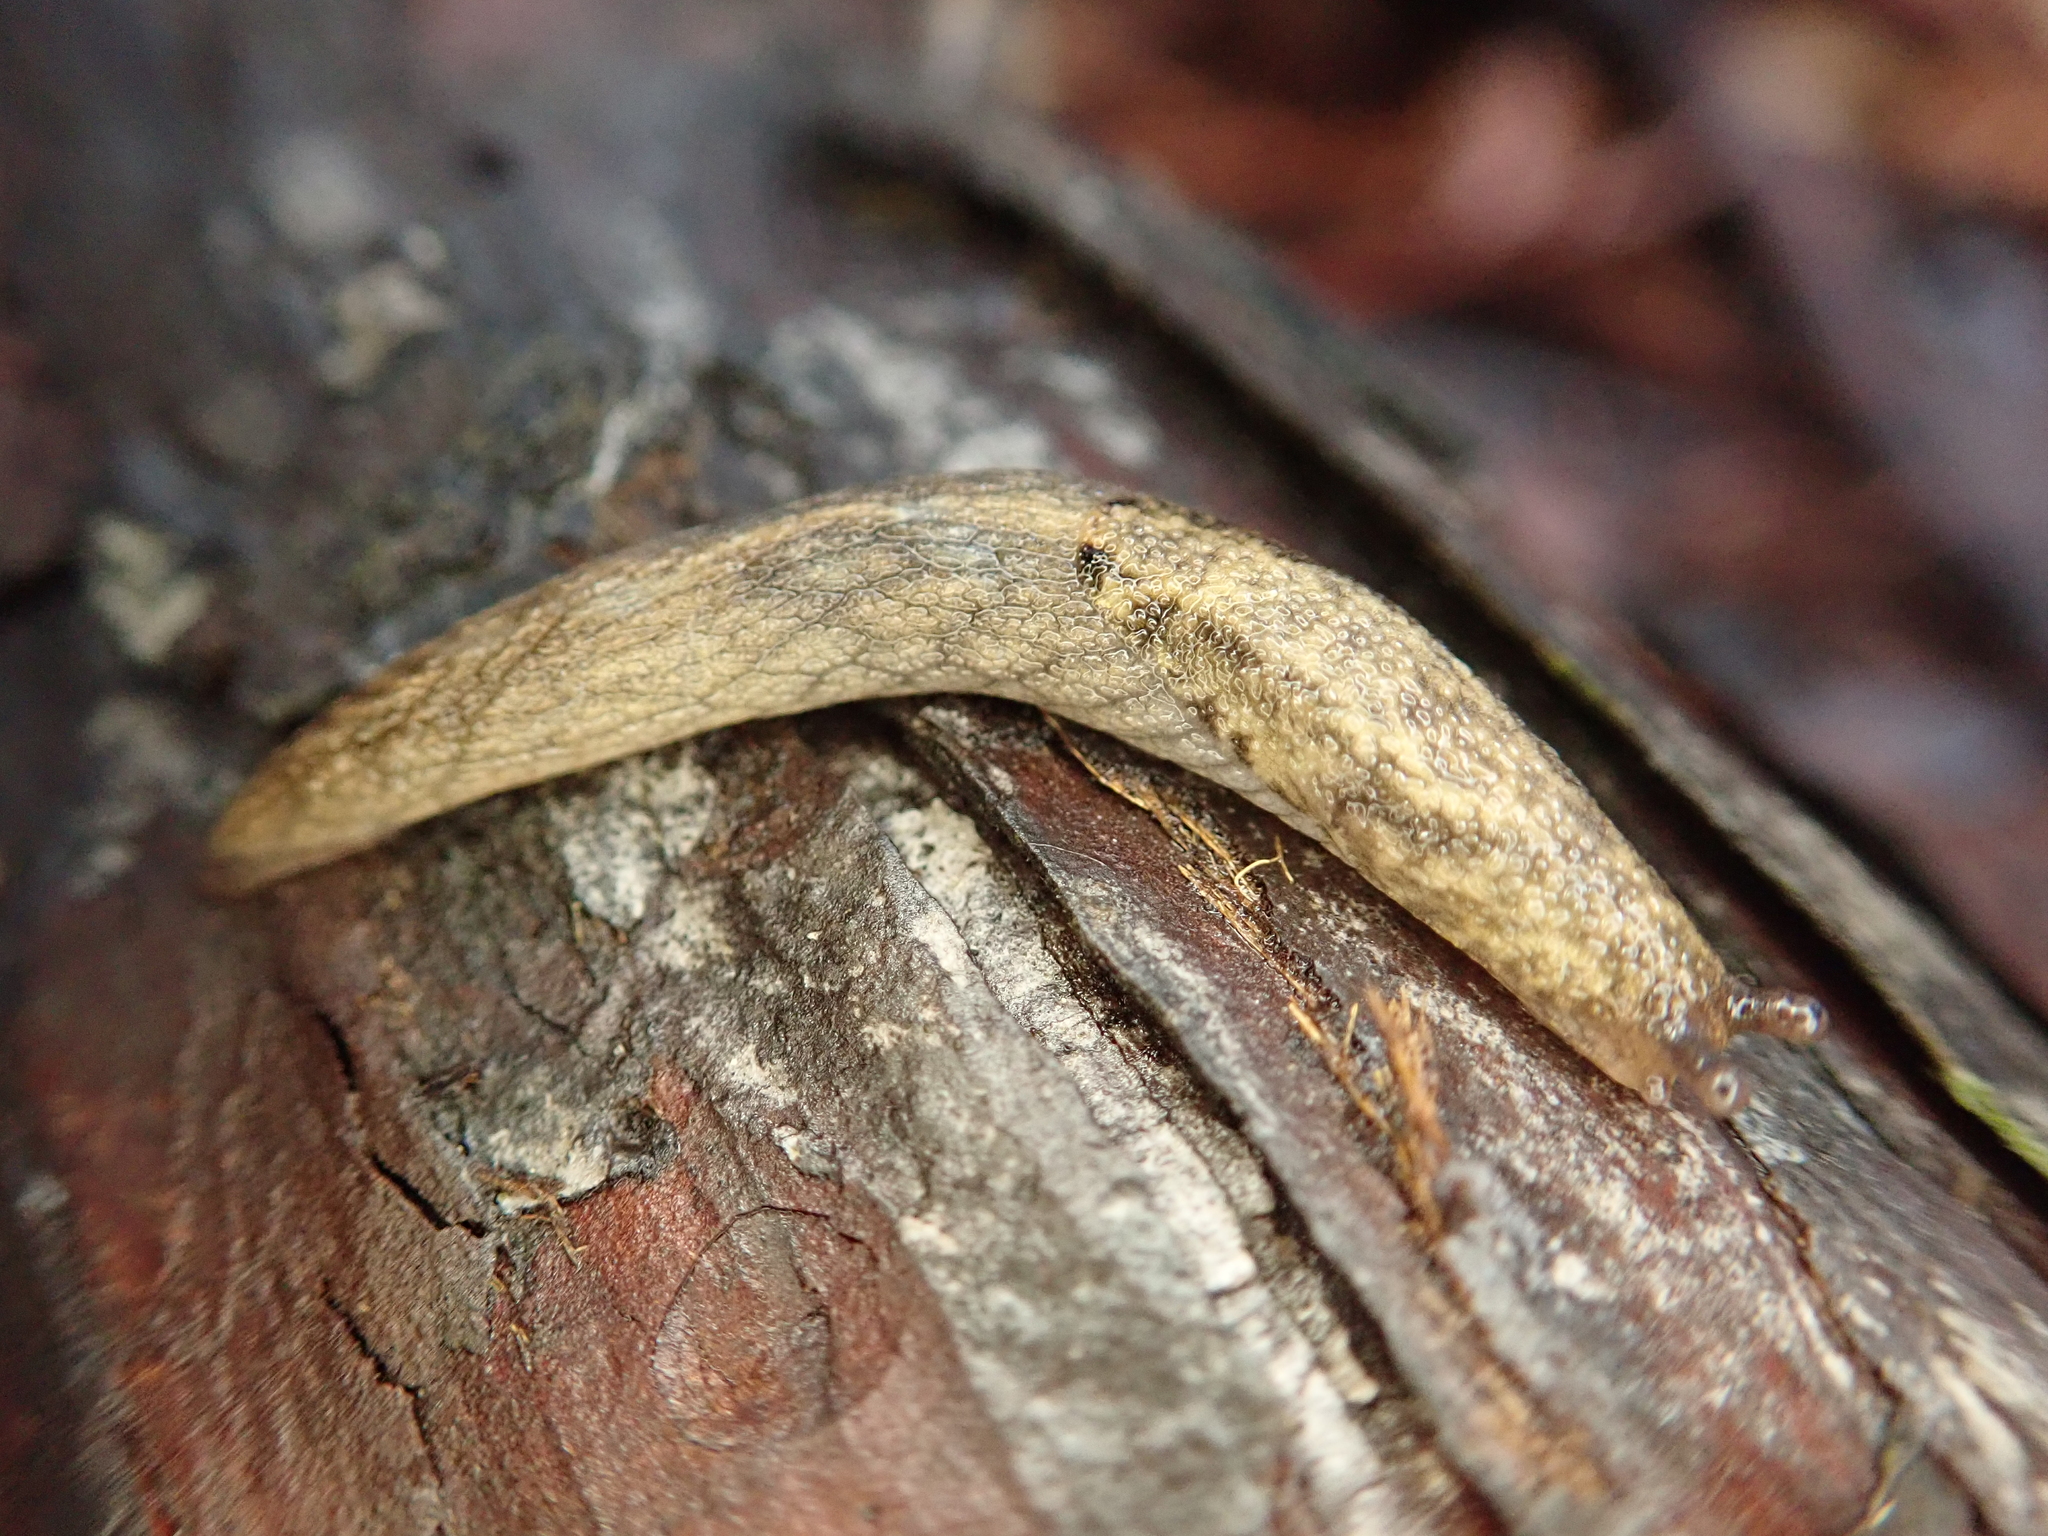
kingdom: Animalia
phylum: Mollusca
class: Gastropoda
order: Stylommatophora
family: Ariolimacidae
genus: Prophysaon
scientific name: Prophysaon andersonii
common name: Reticulate taildropper
